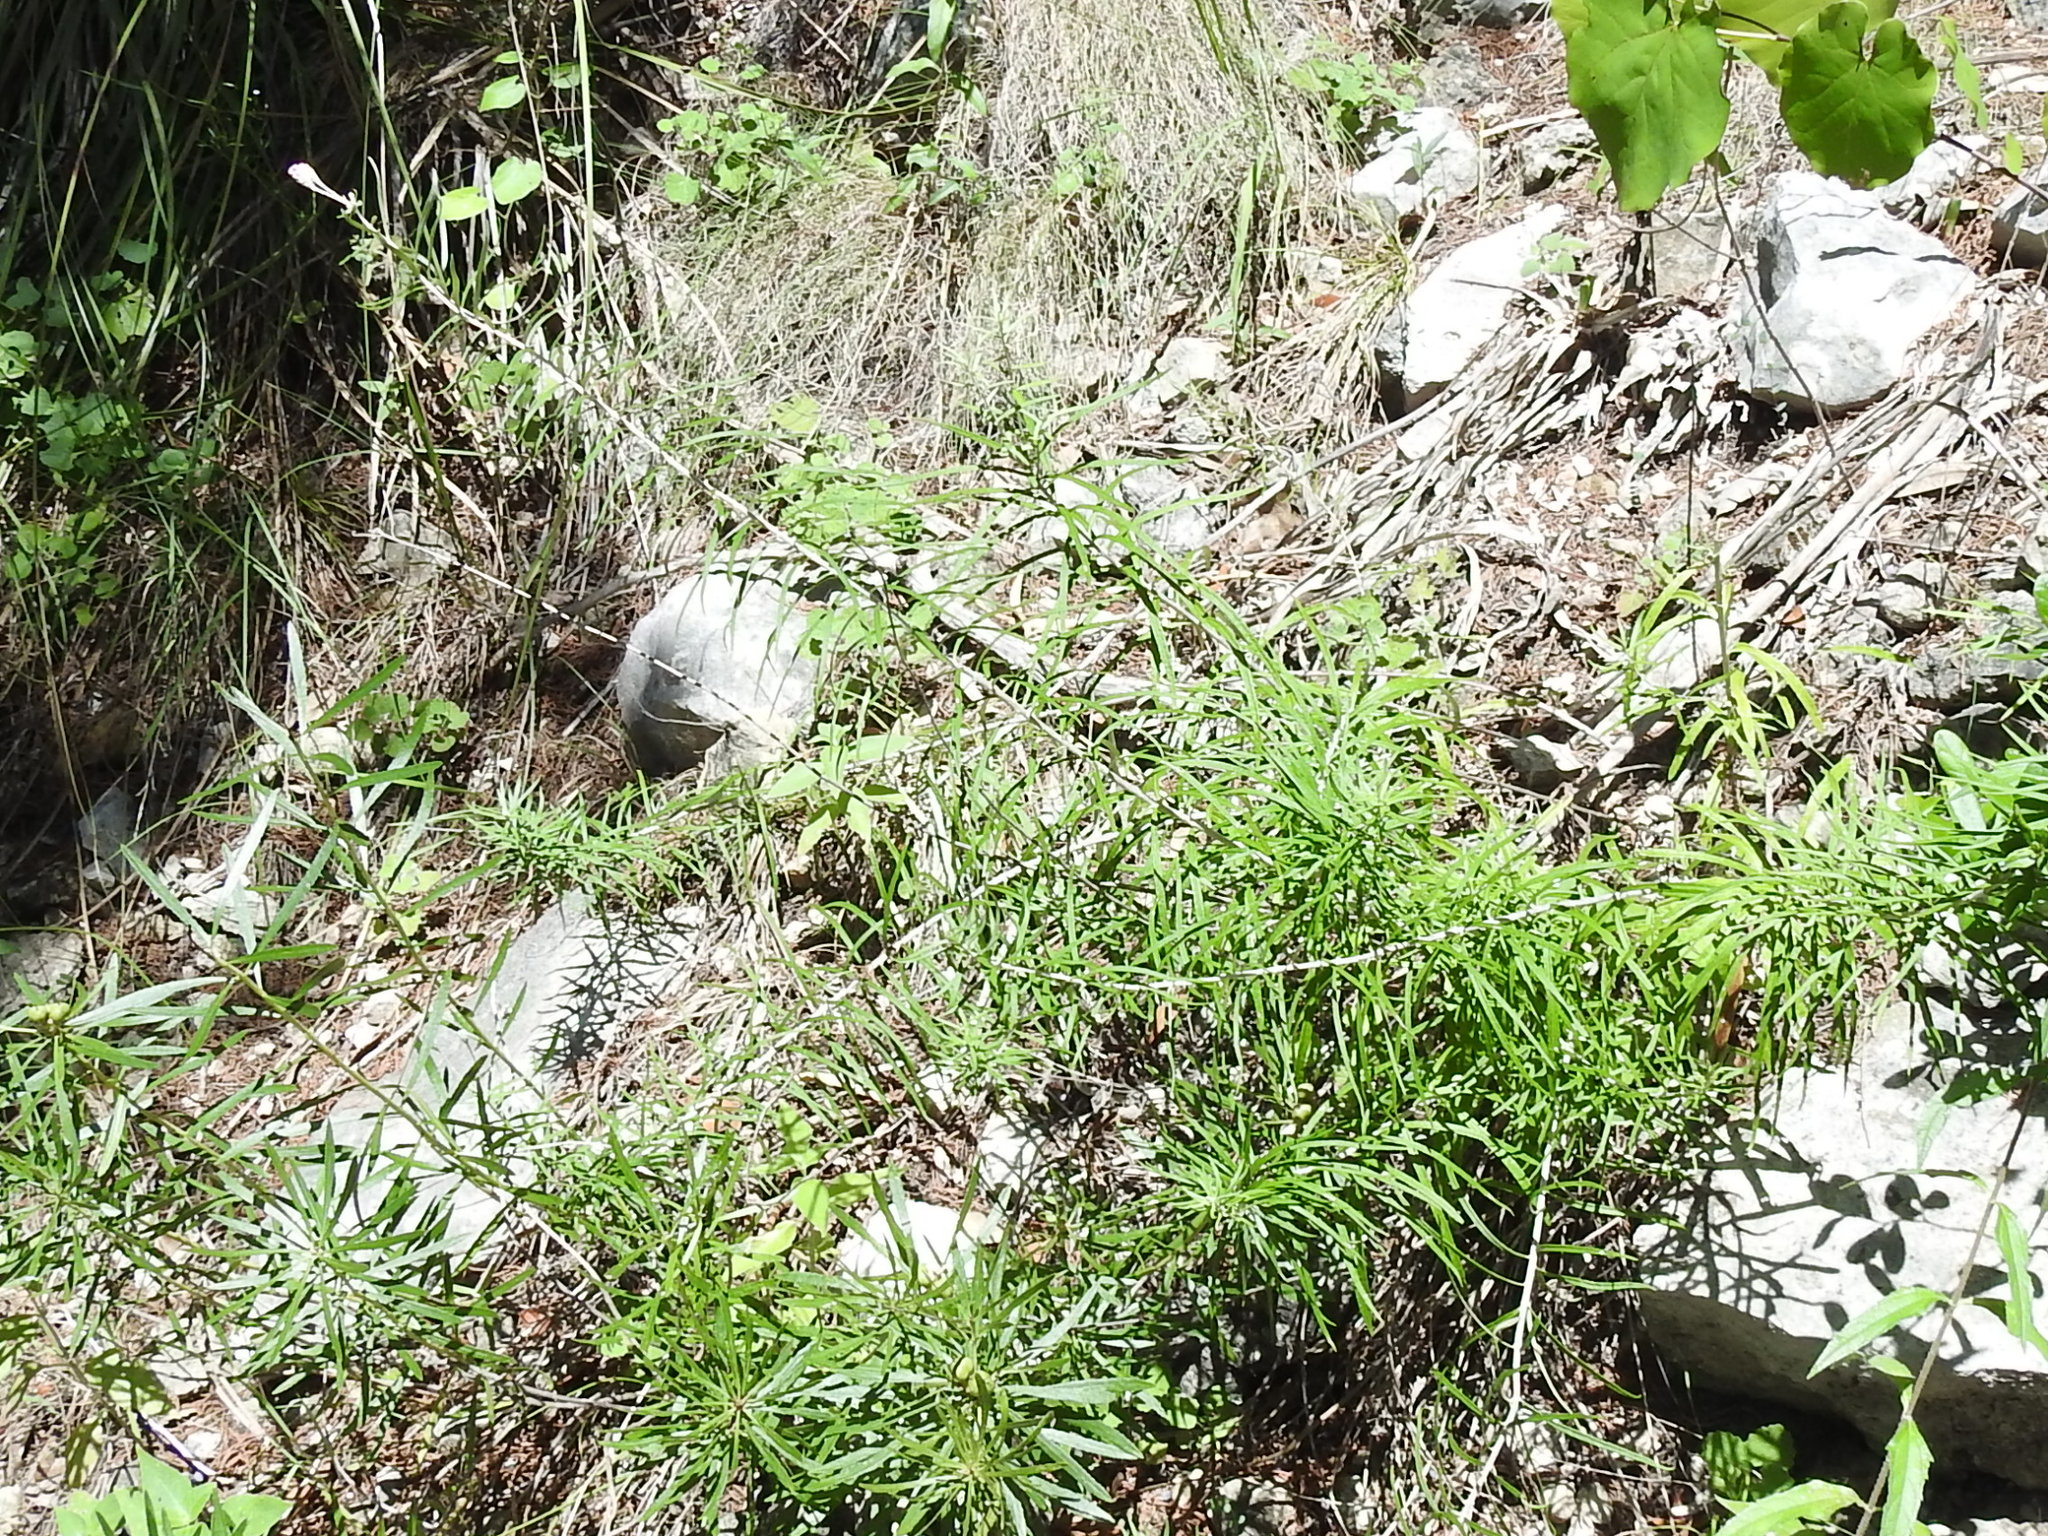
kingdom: Plantae
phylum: Tracheophyta
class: Magnoliopsida
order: Asterales
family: Asteraceae
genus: Vernonia
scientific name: Vernonia lindheimeri
